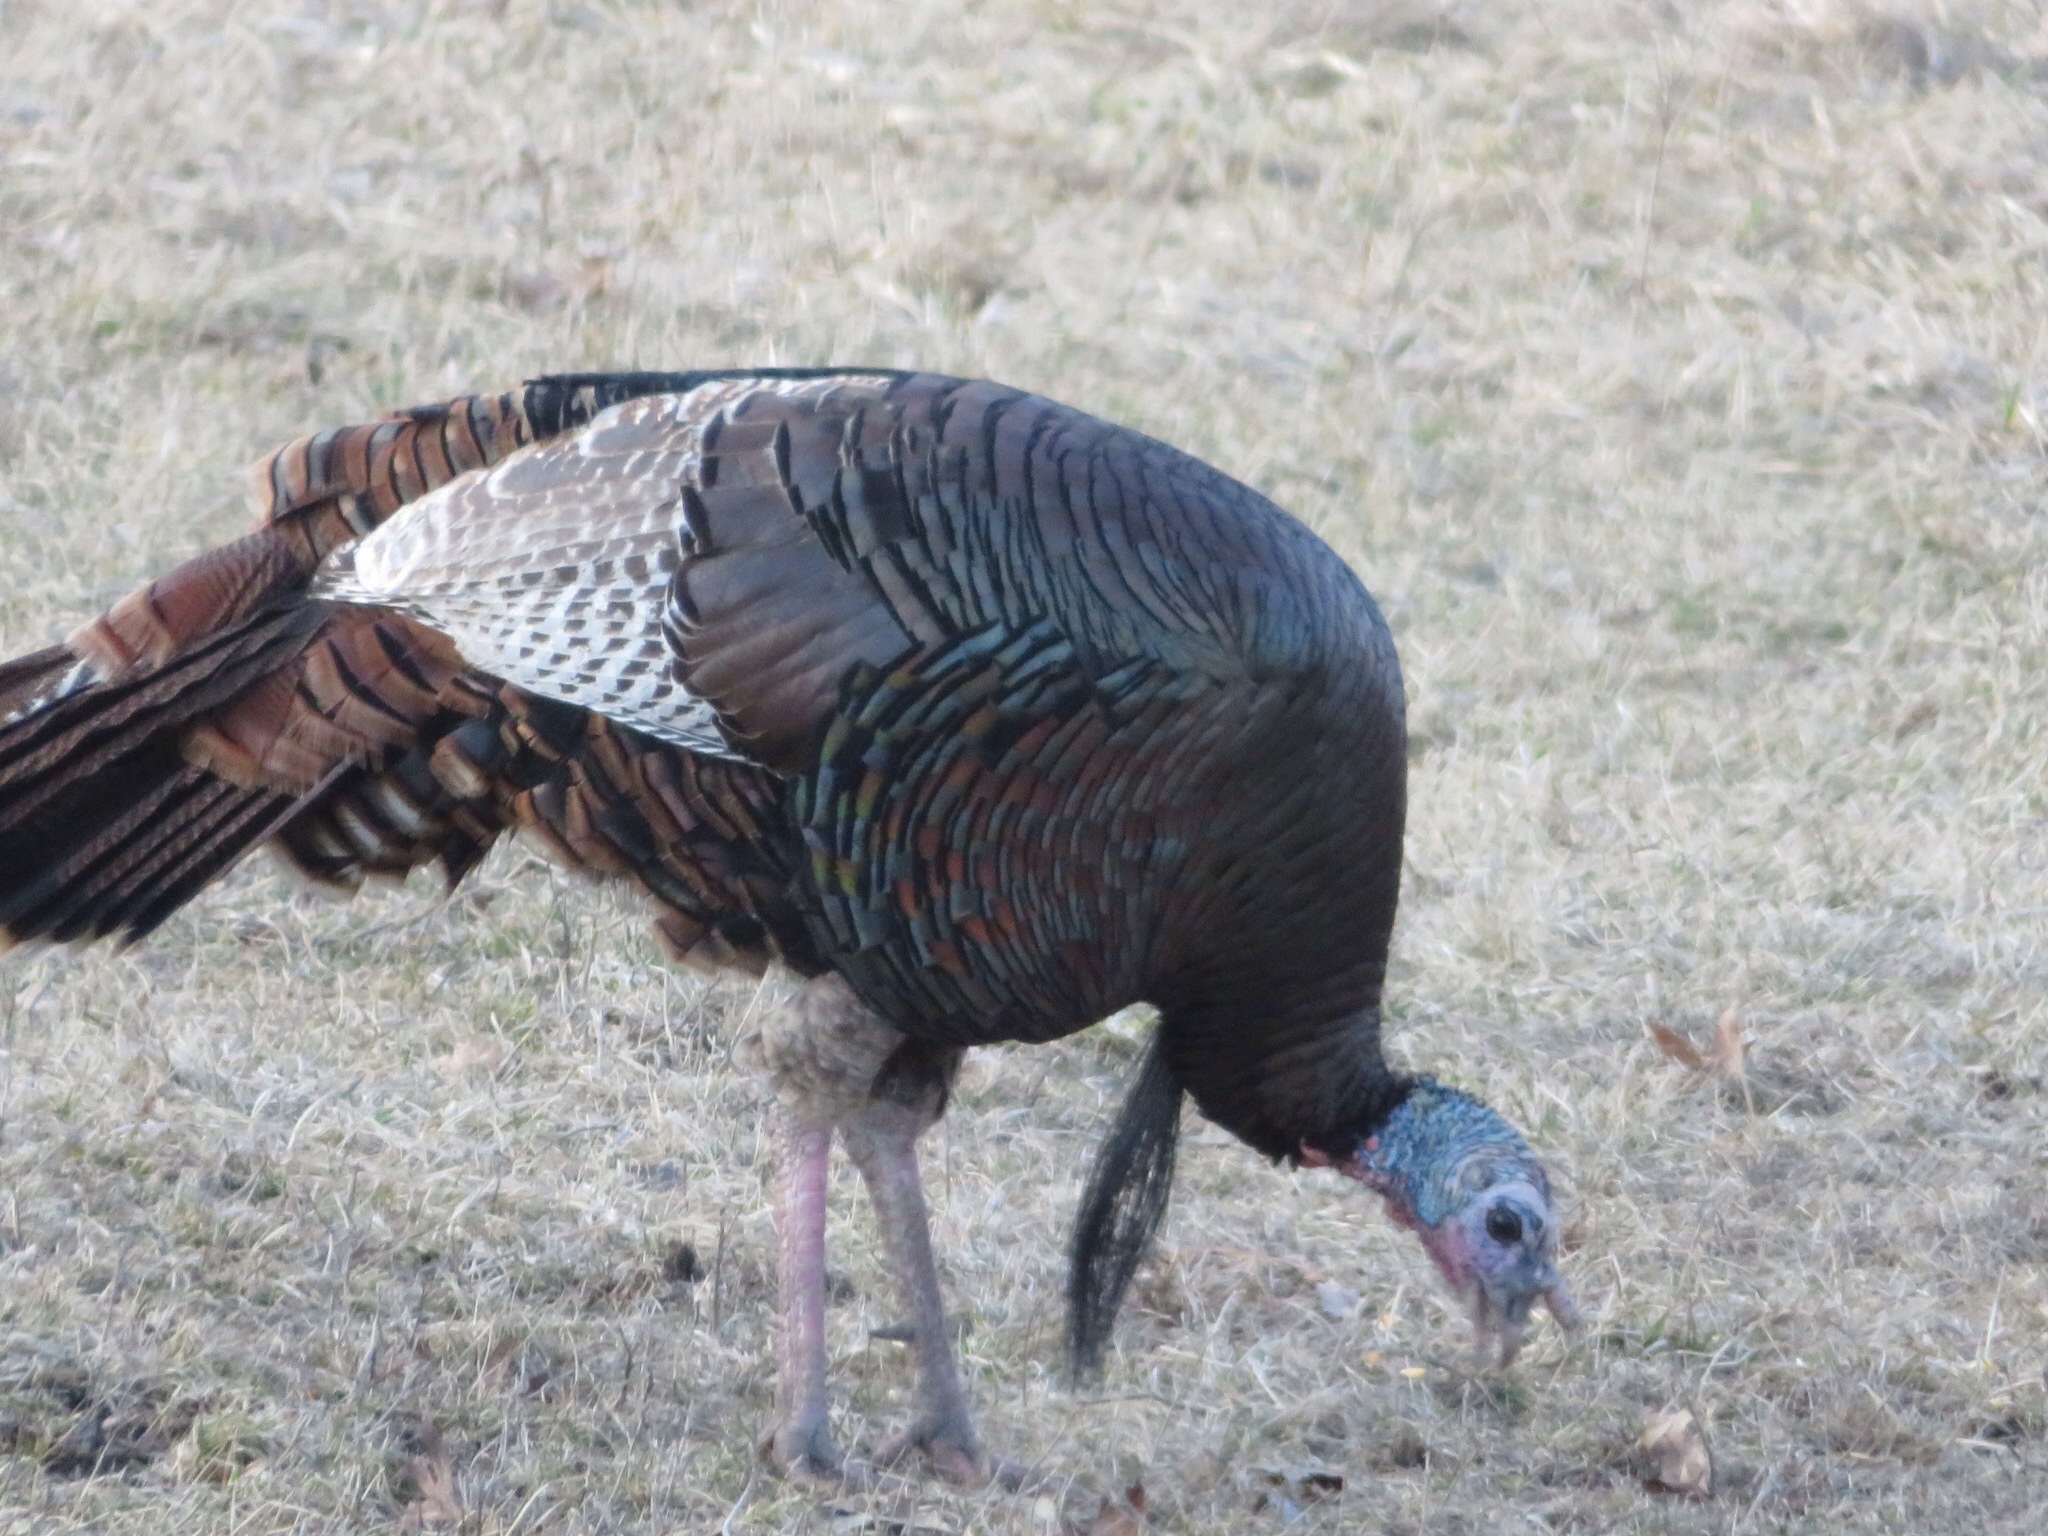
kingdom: Animalia
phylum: Chordata
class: Aves
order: Galliformes
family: Phasianidae
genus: Meleagris
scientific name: Meleagris gallopavo
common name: Wild turkey
